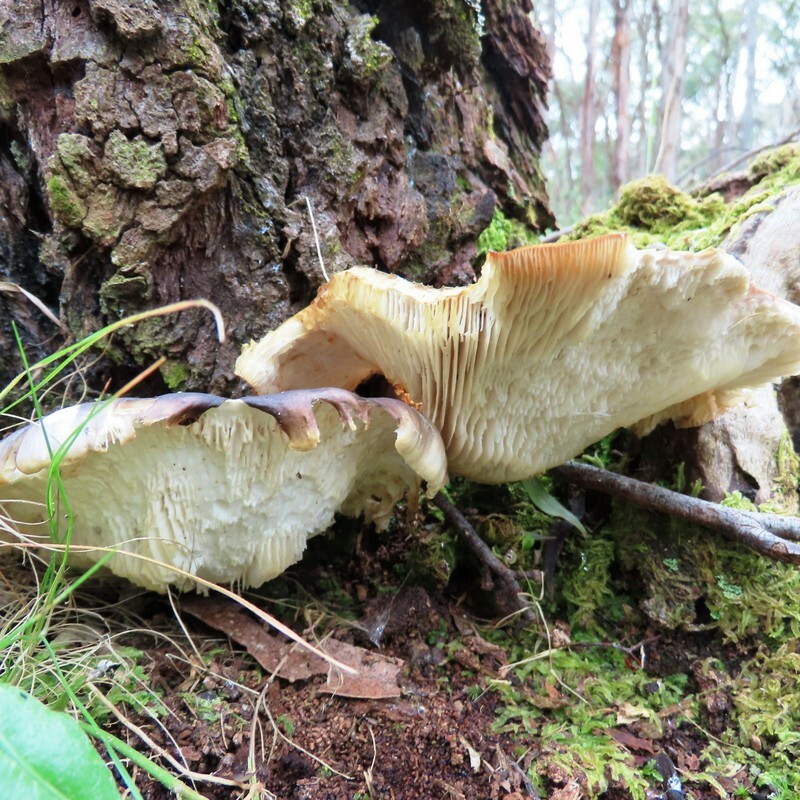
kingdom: Fungi
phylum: Basidiomycota
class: Agaricomycetes
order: Agaricales
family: Omphalotaceae
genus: Omphalotus
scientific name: Omphalotus nidiformis
